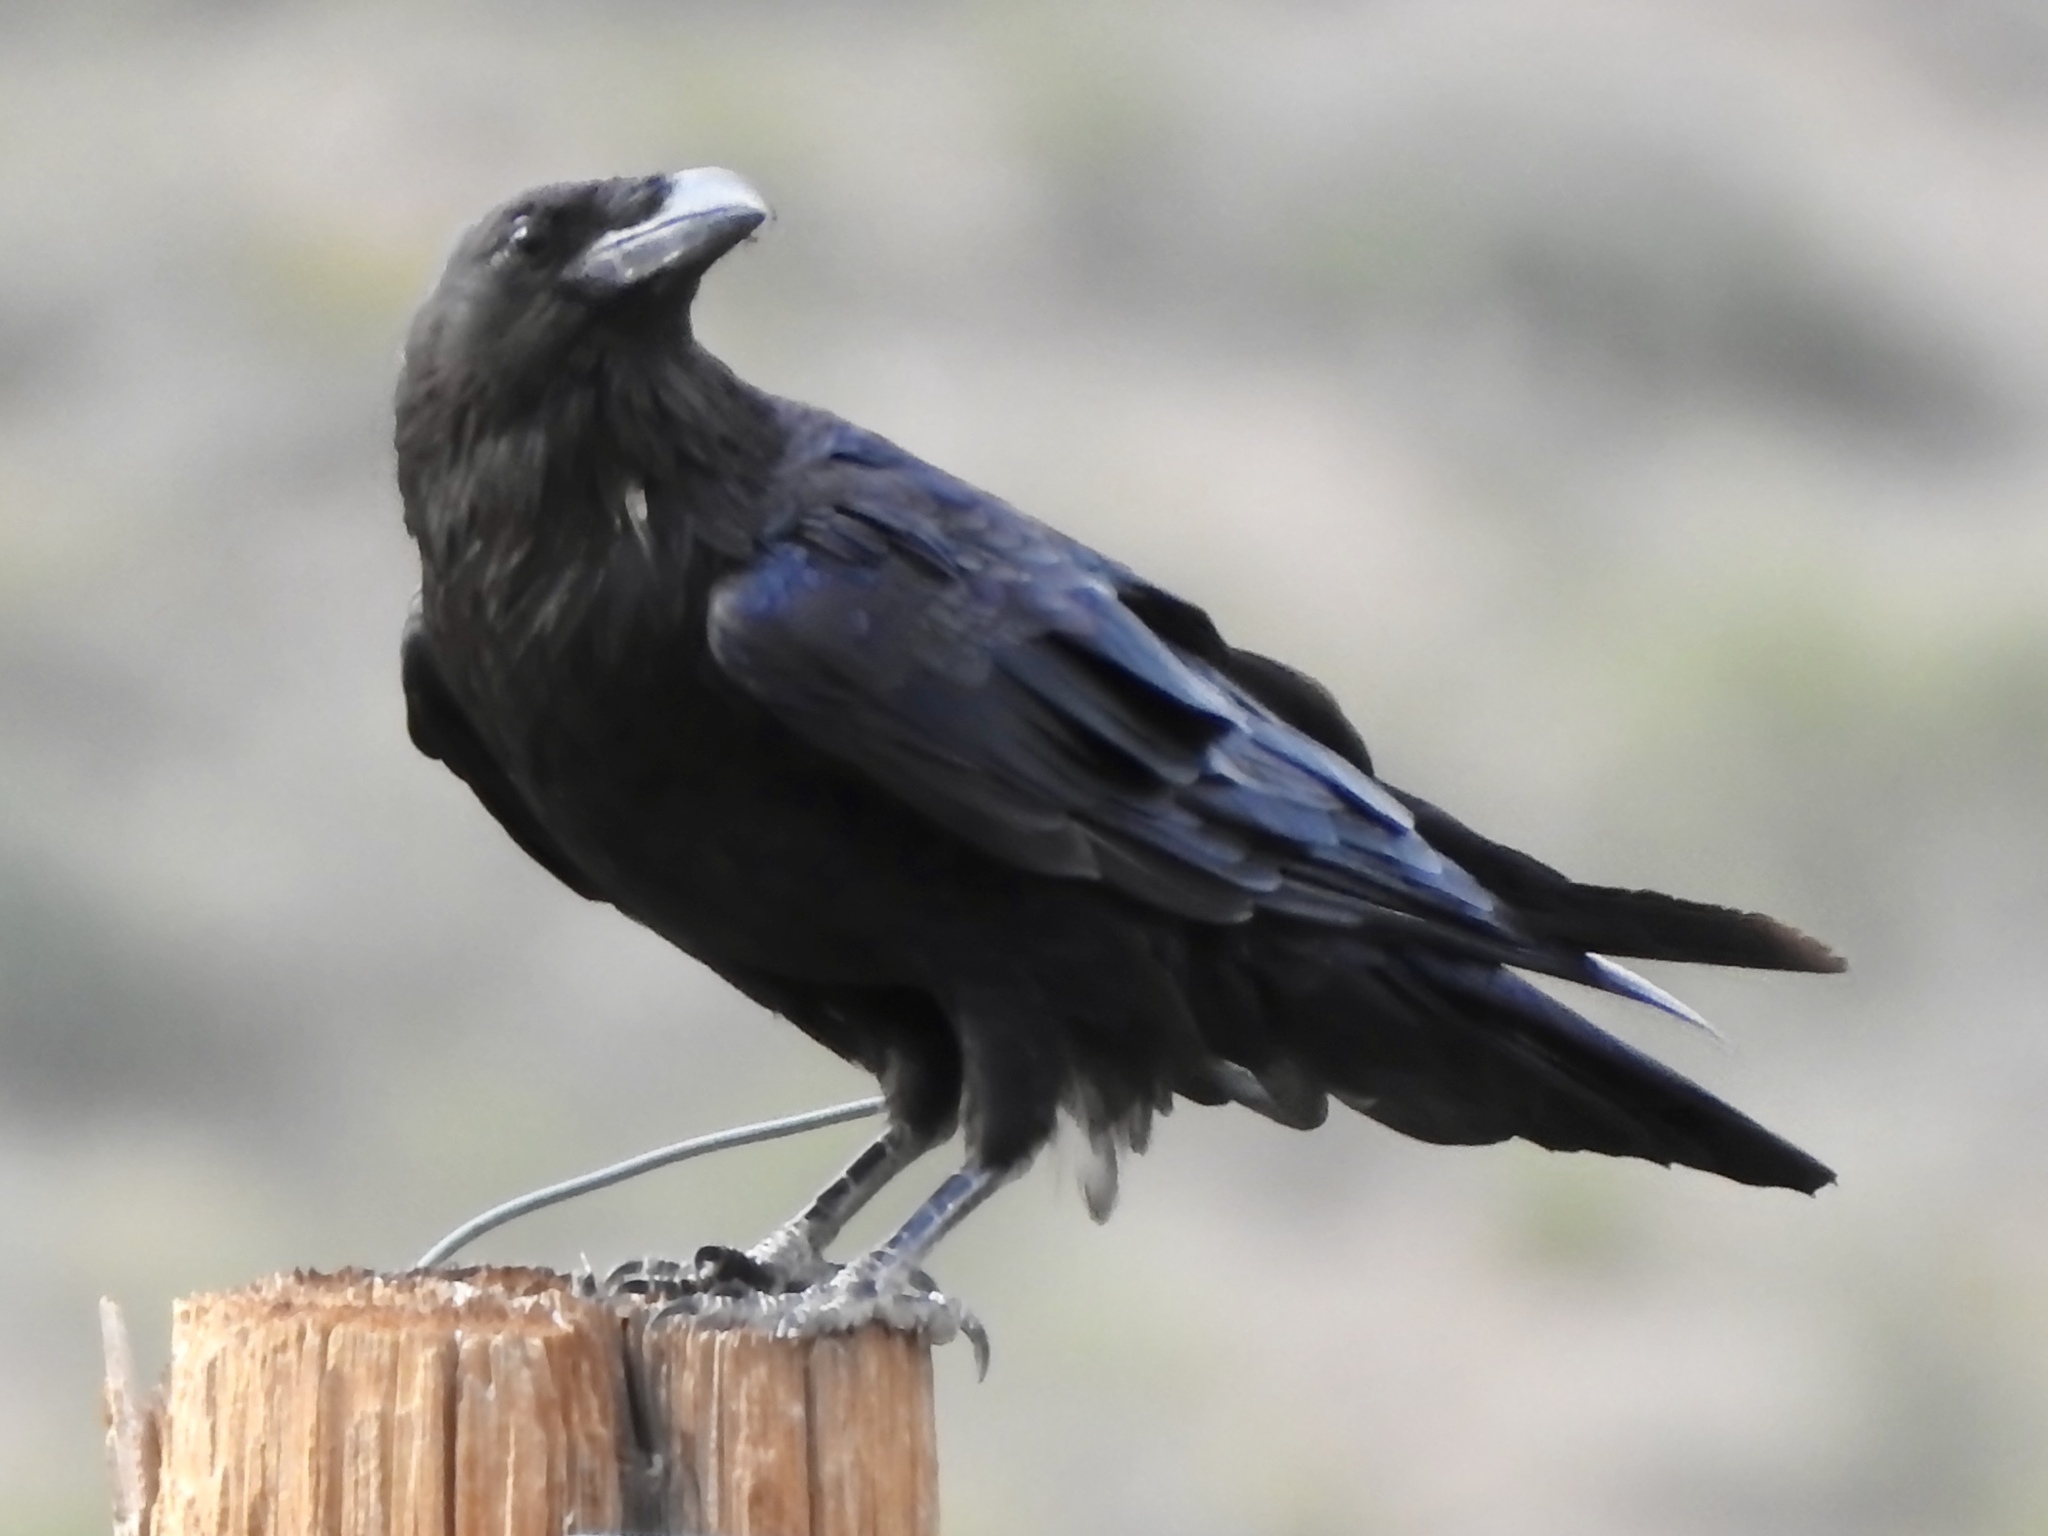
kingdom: Animalia
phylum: Chordata
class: Aves
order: Passeriformes
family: Corvidae
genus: Corvus
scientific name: Corvus corax
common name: Common raven
